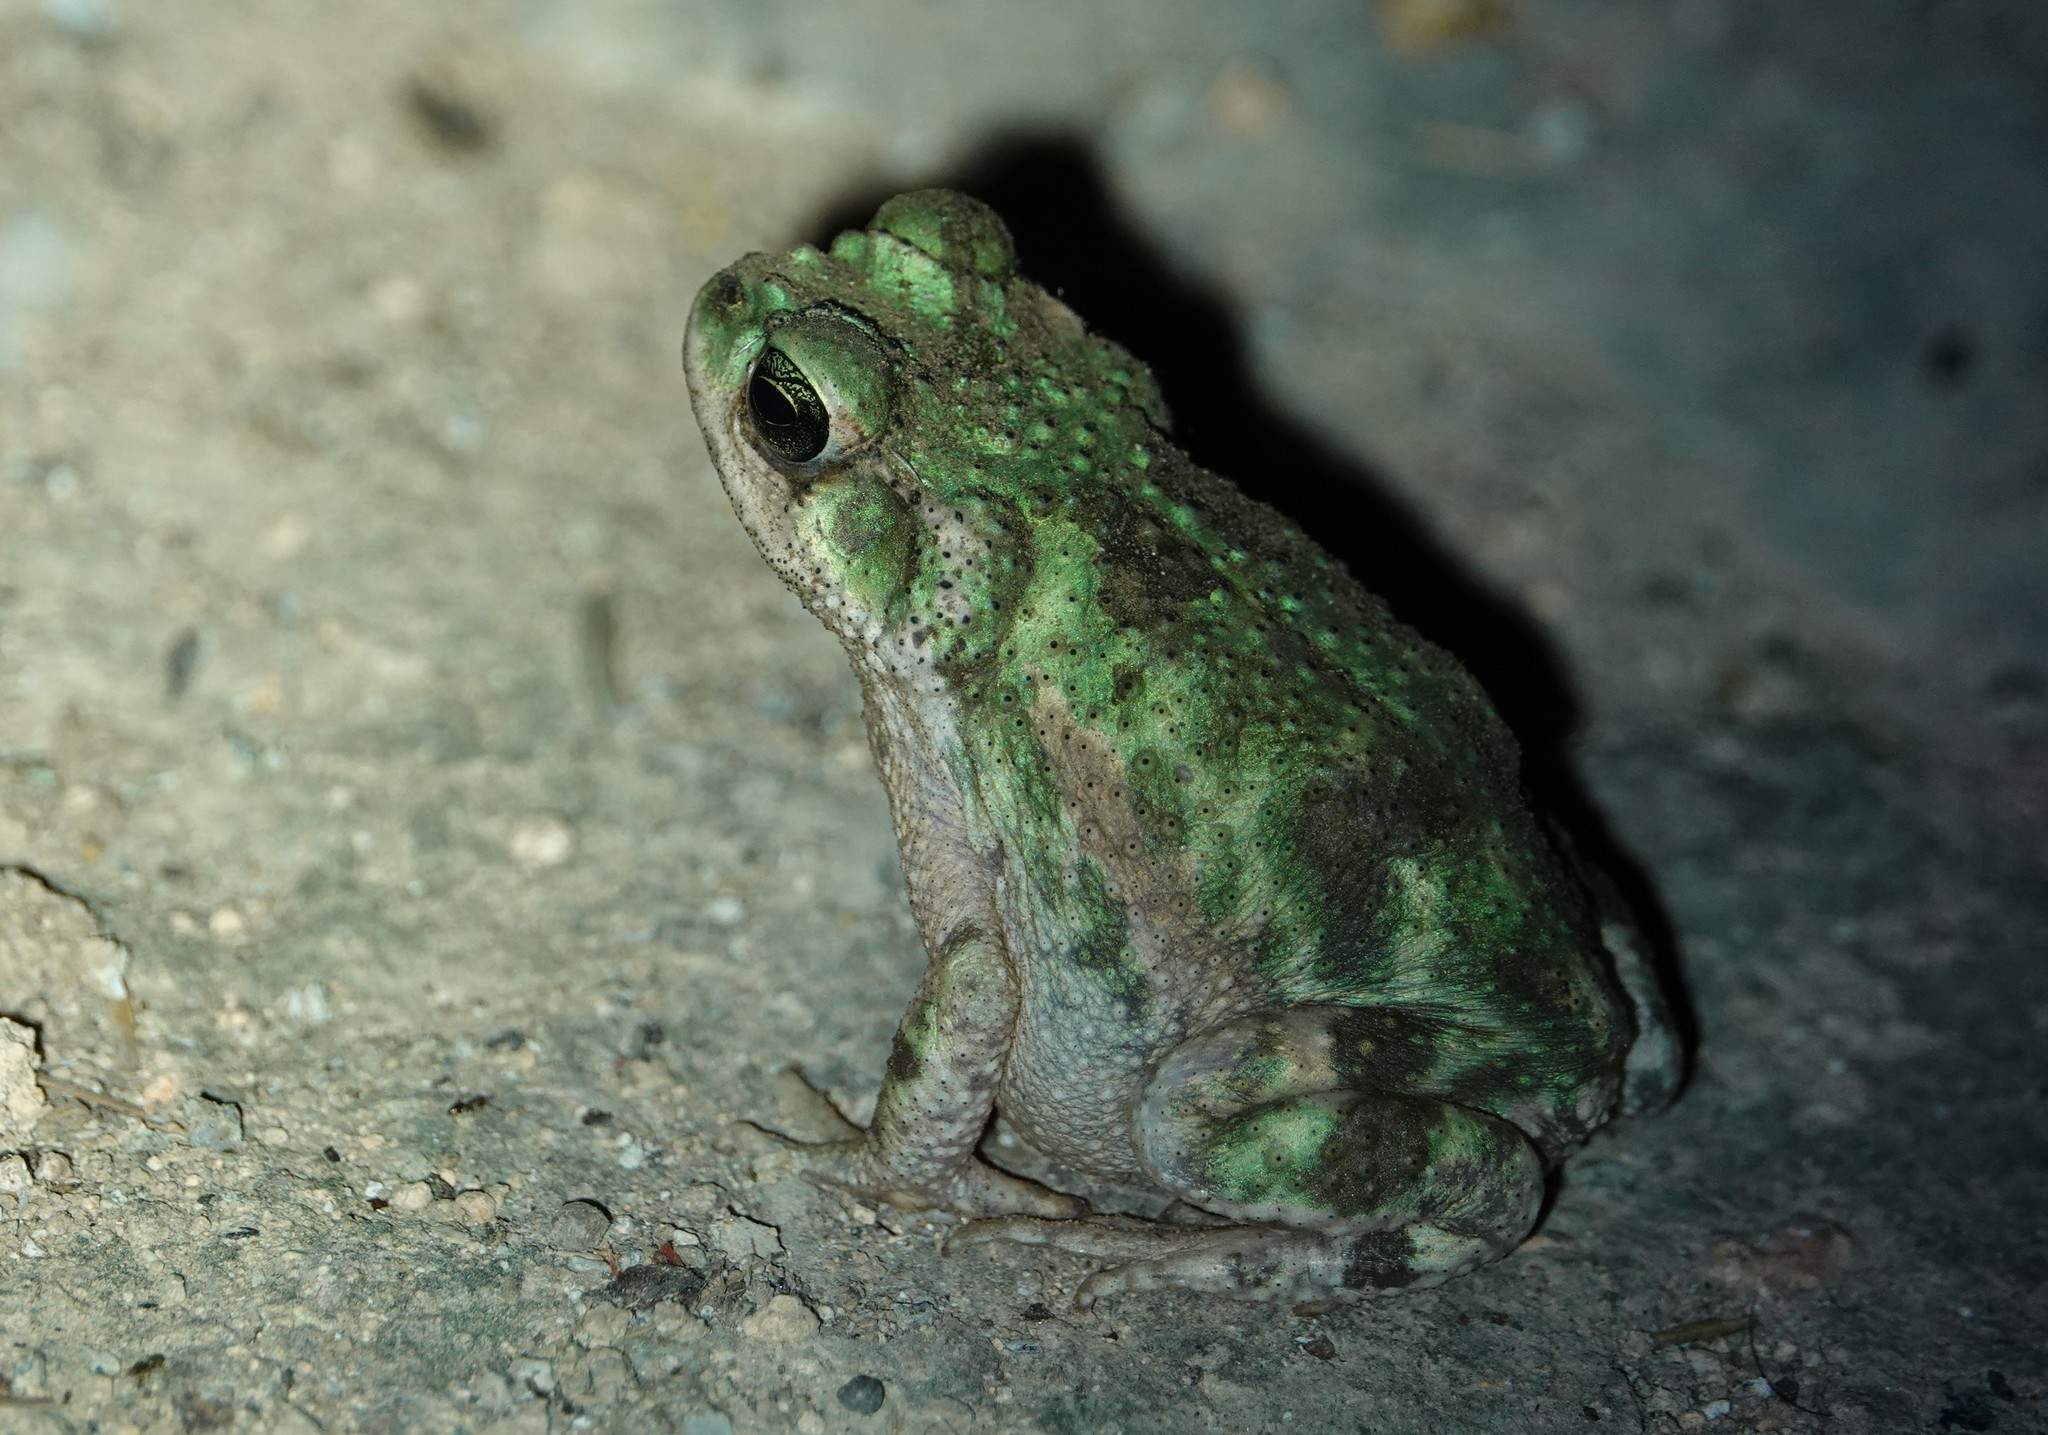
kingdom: Animalia
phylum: Chordata
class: Amphibia
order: Anura
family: Bufonidae
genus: Peltophryne
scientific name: Peltophryne peltocephala
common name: Eastern cuba giant toad
